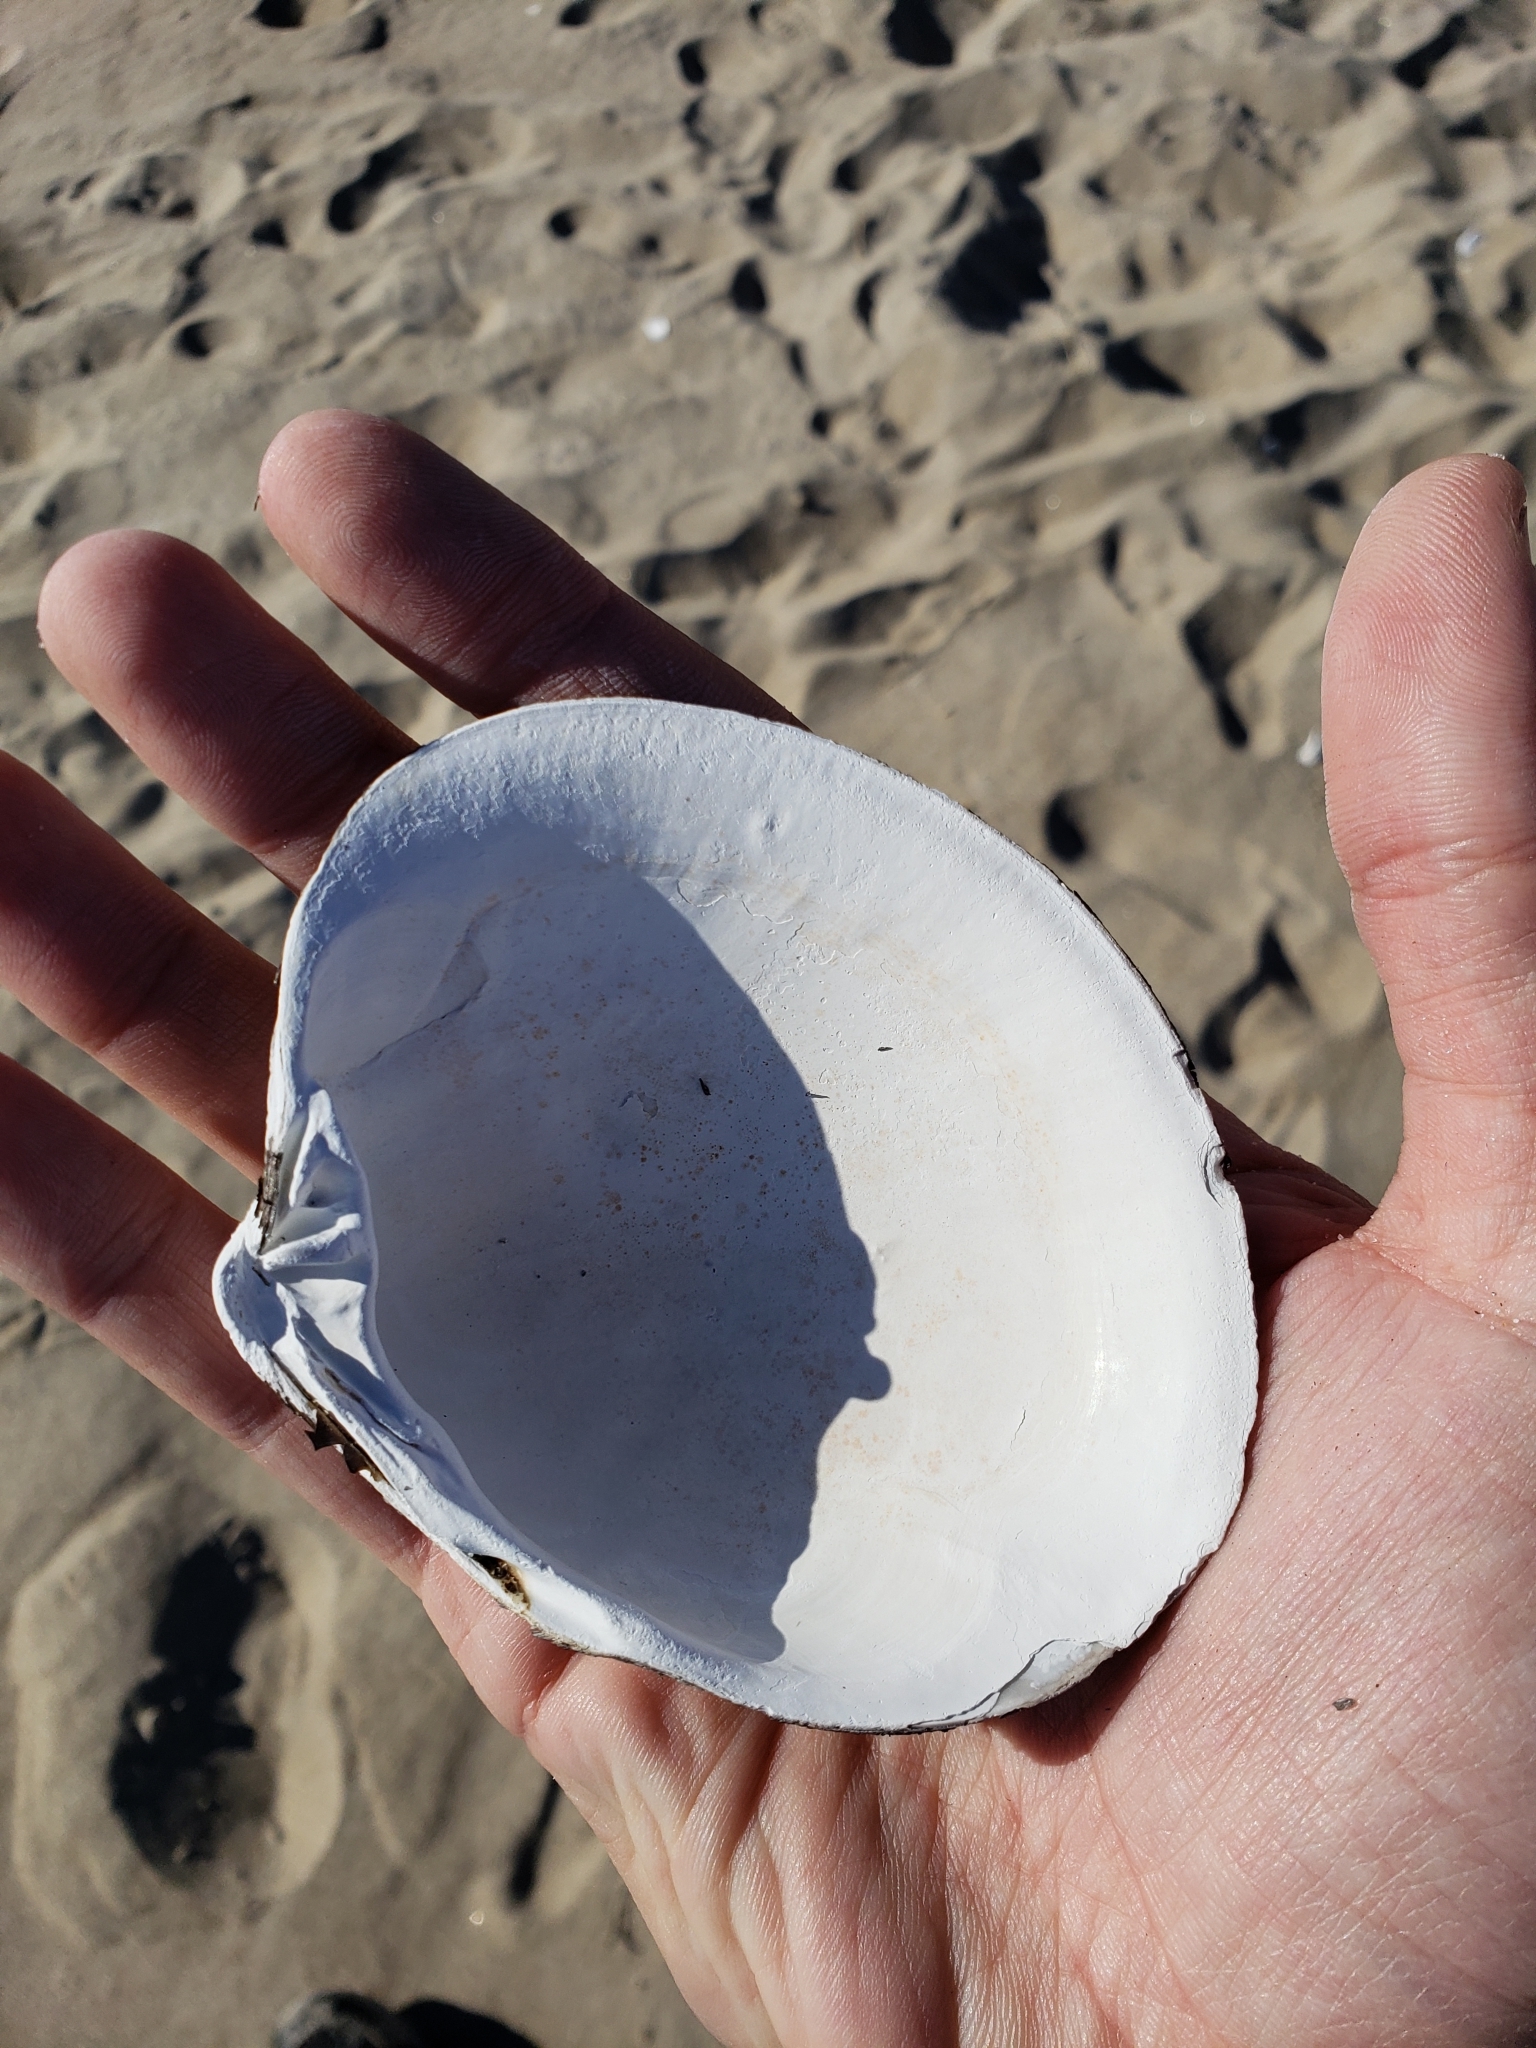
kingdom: Animalia
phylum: Mollusca
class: Bivalvia
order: Venerida
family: Arcticidae
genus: Arctica
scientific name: Arctica islandica
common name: Icelandic cyprine
